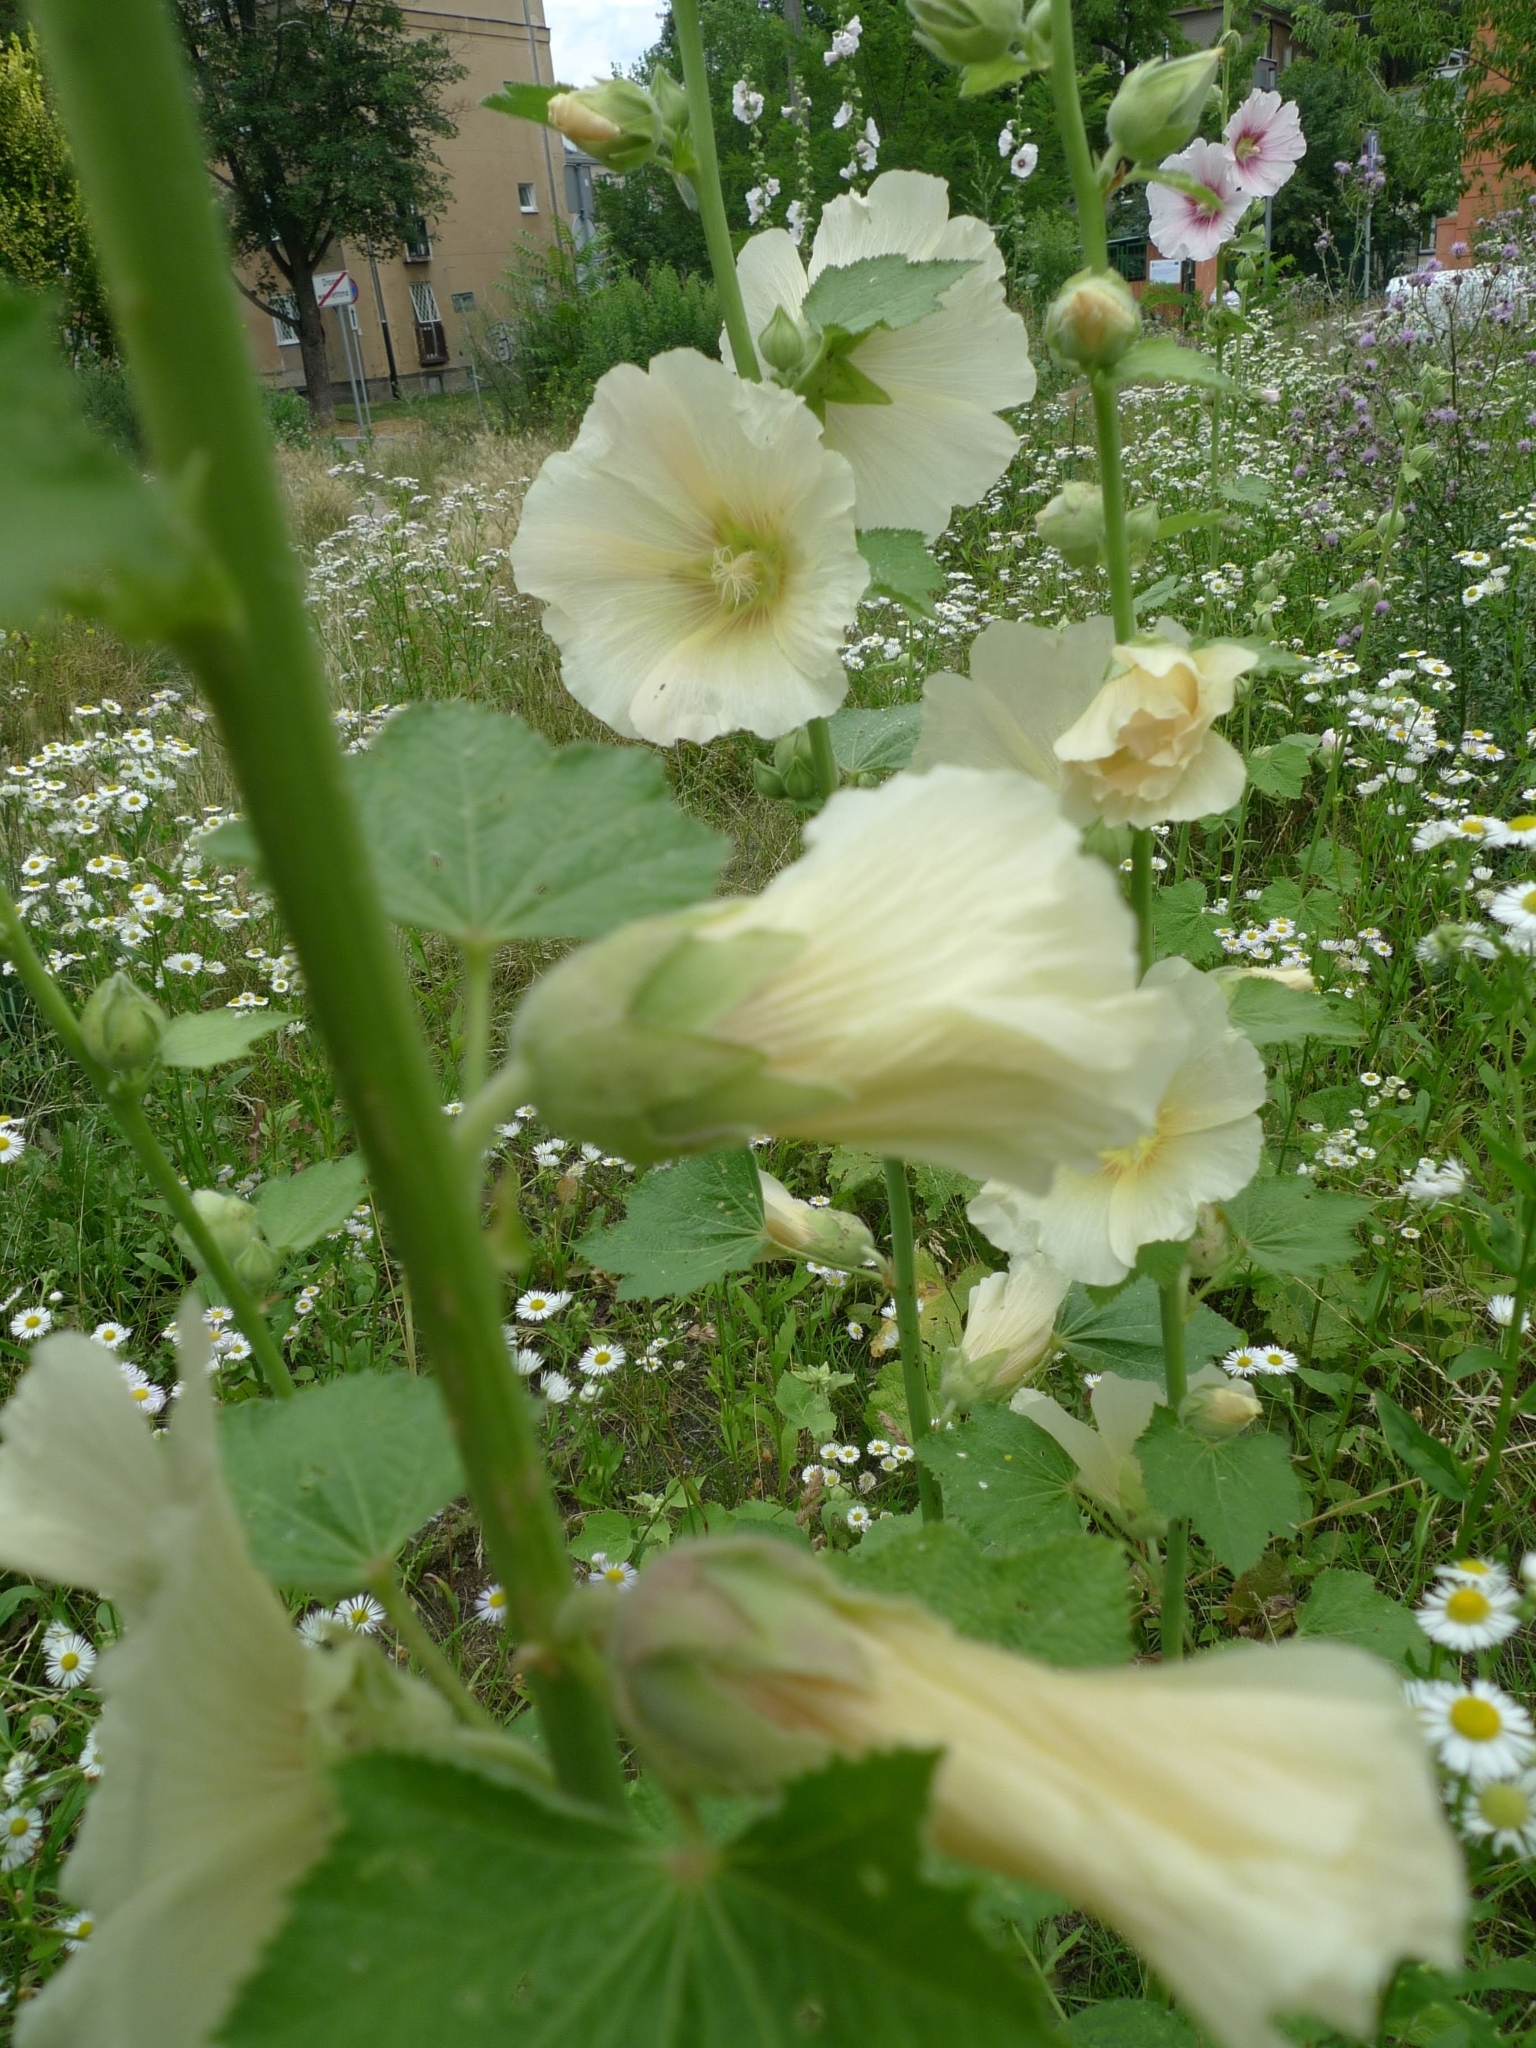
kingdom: Plantae
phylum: Tracheophyta
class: Magnoliopsida
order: Malvales
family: Malvaceae
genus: Alcea
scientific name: Alcea rosea
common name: Hollyhock
